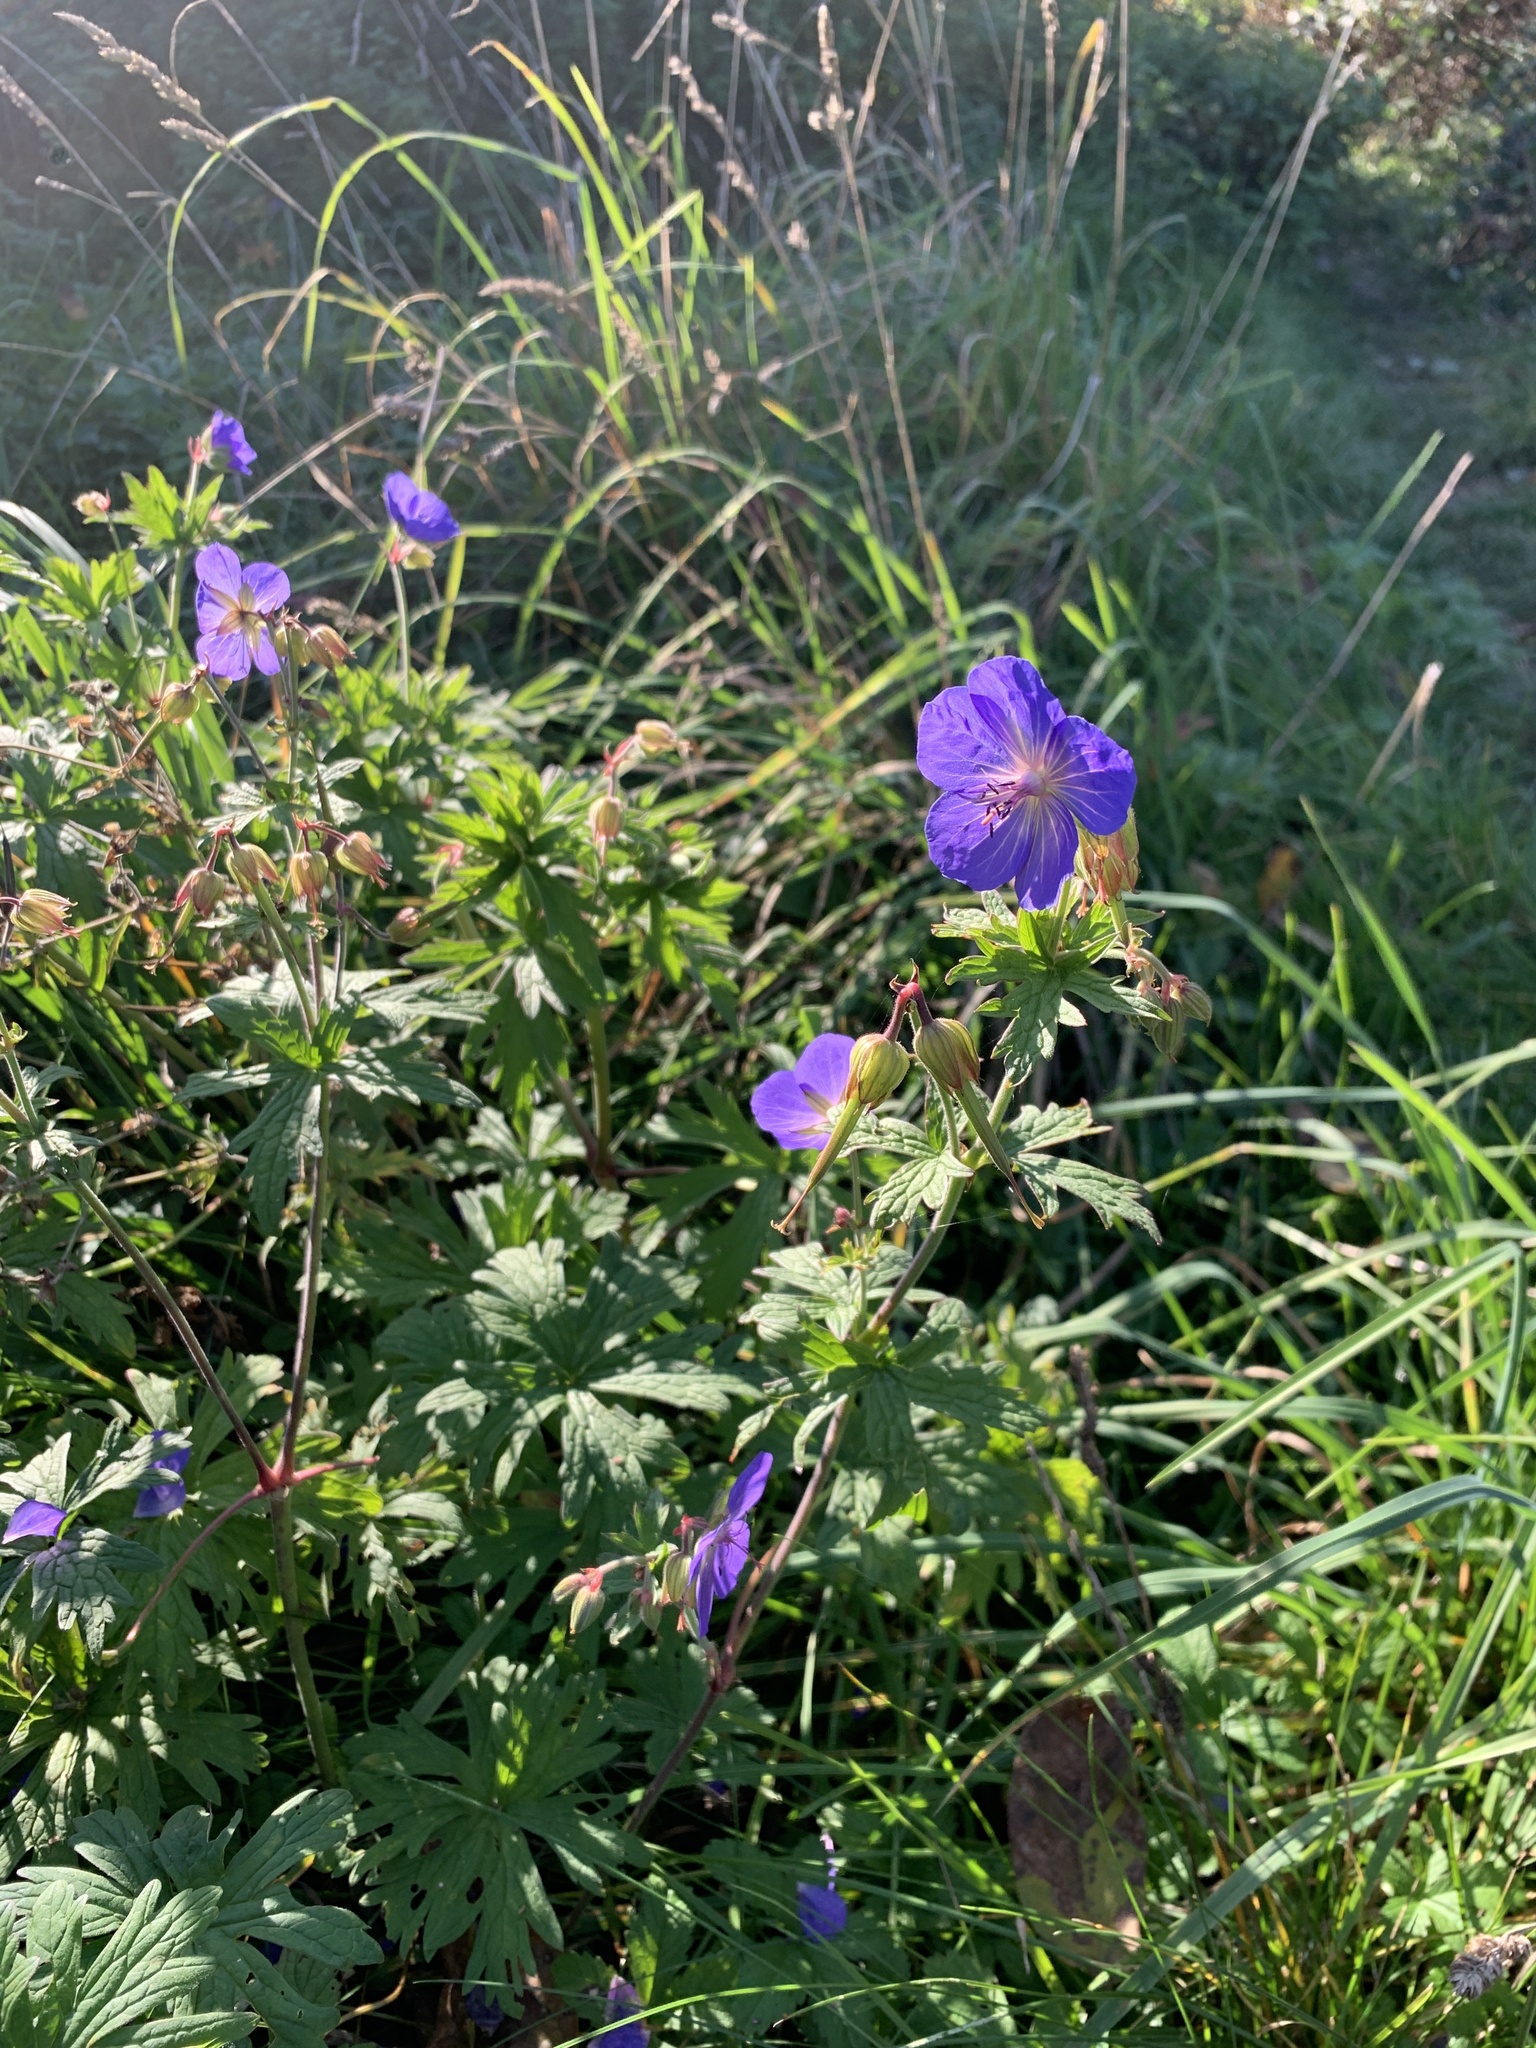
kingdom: Plantae
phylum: Tracheophyta
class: Magnoliopsida
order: Geraniales
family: Geraniaceae
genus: Geranium
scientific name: Geranium pratense
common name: Meadow crane's-bill
